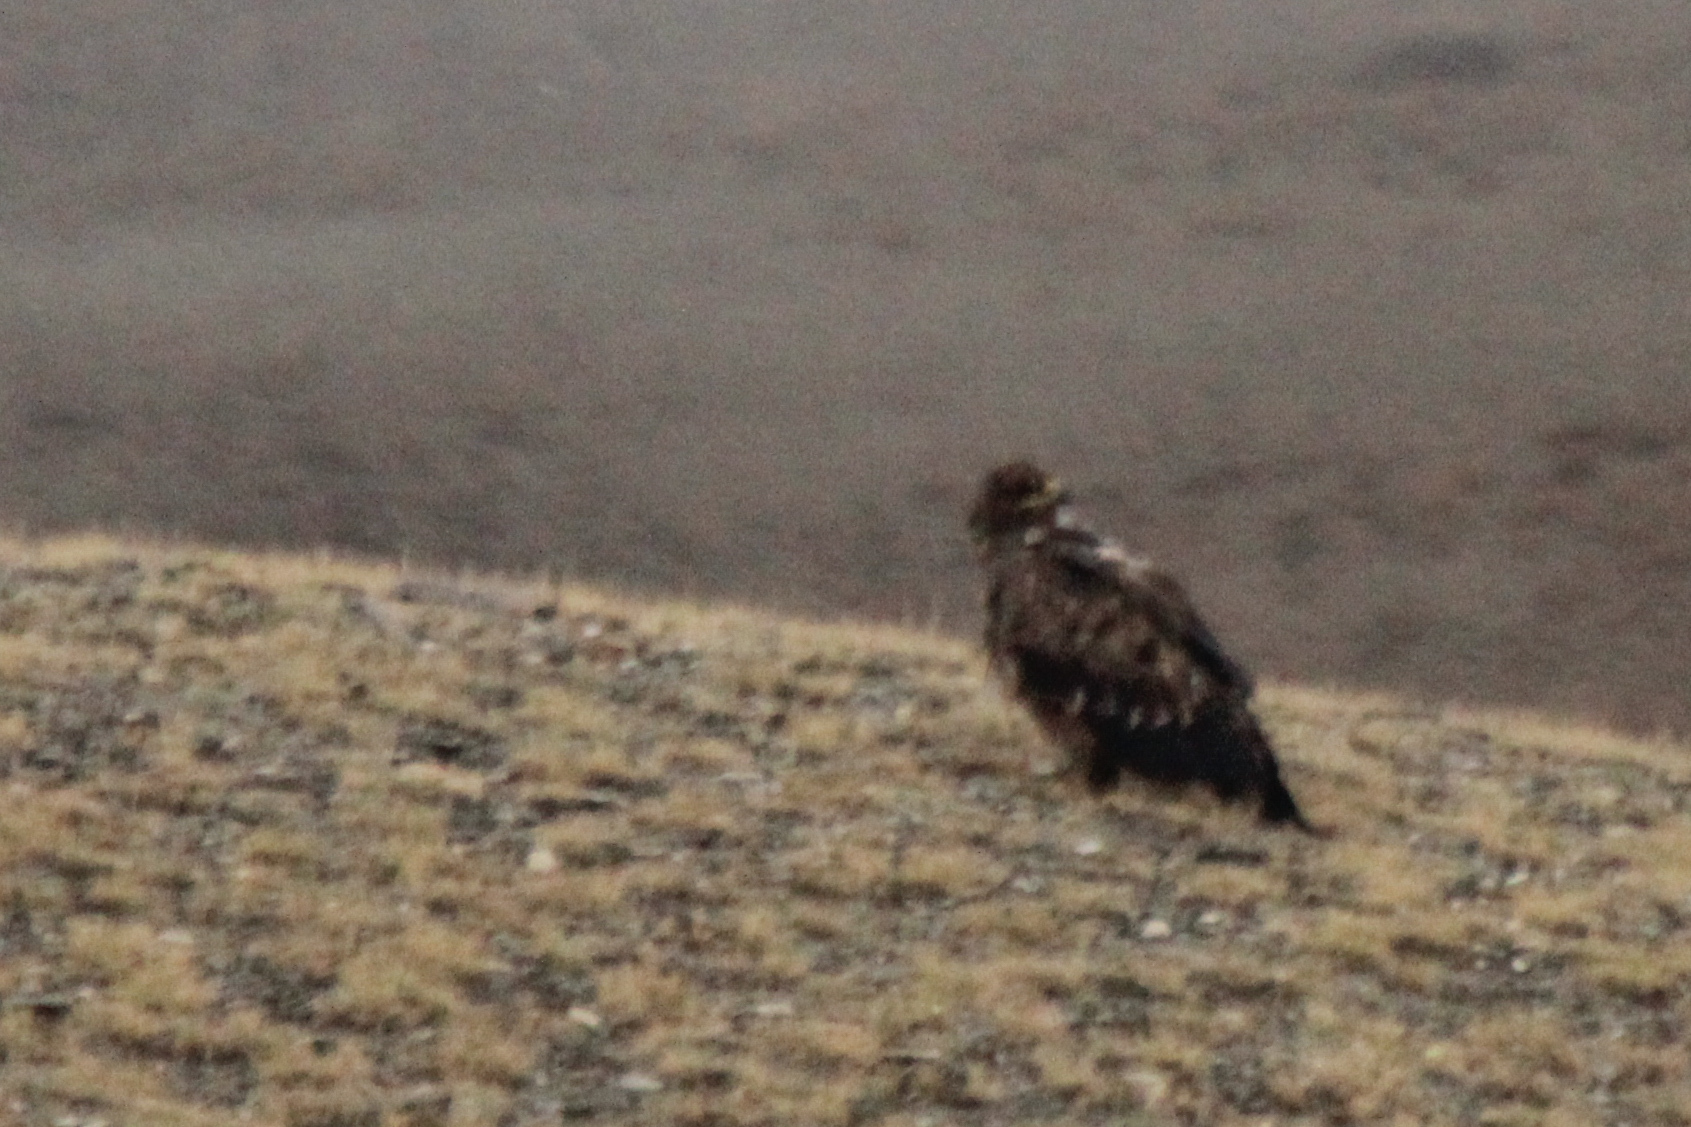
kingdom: Animalia
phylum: Chordata
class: Aves
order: Accipitriformes
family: Accipitridae
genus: Aquila
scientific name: Aquila nipalensis
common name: Steppe eagle
